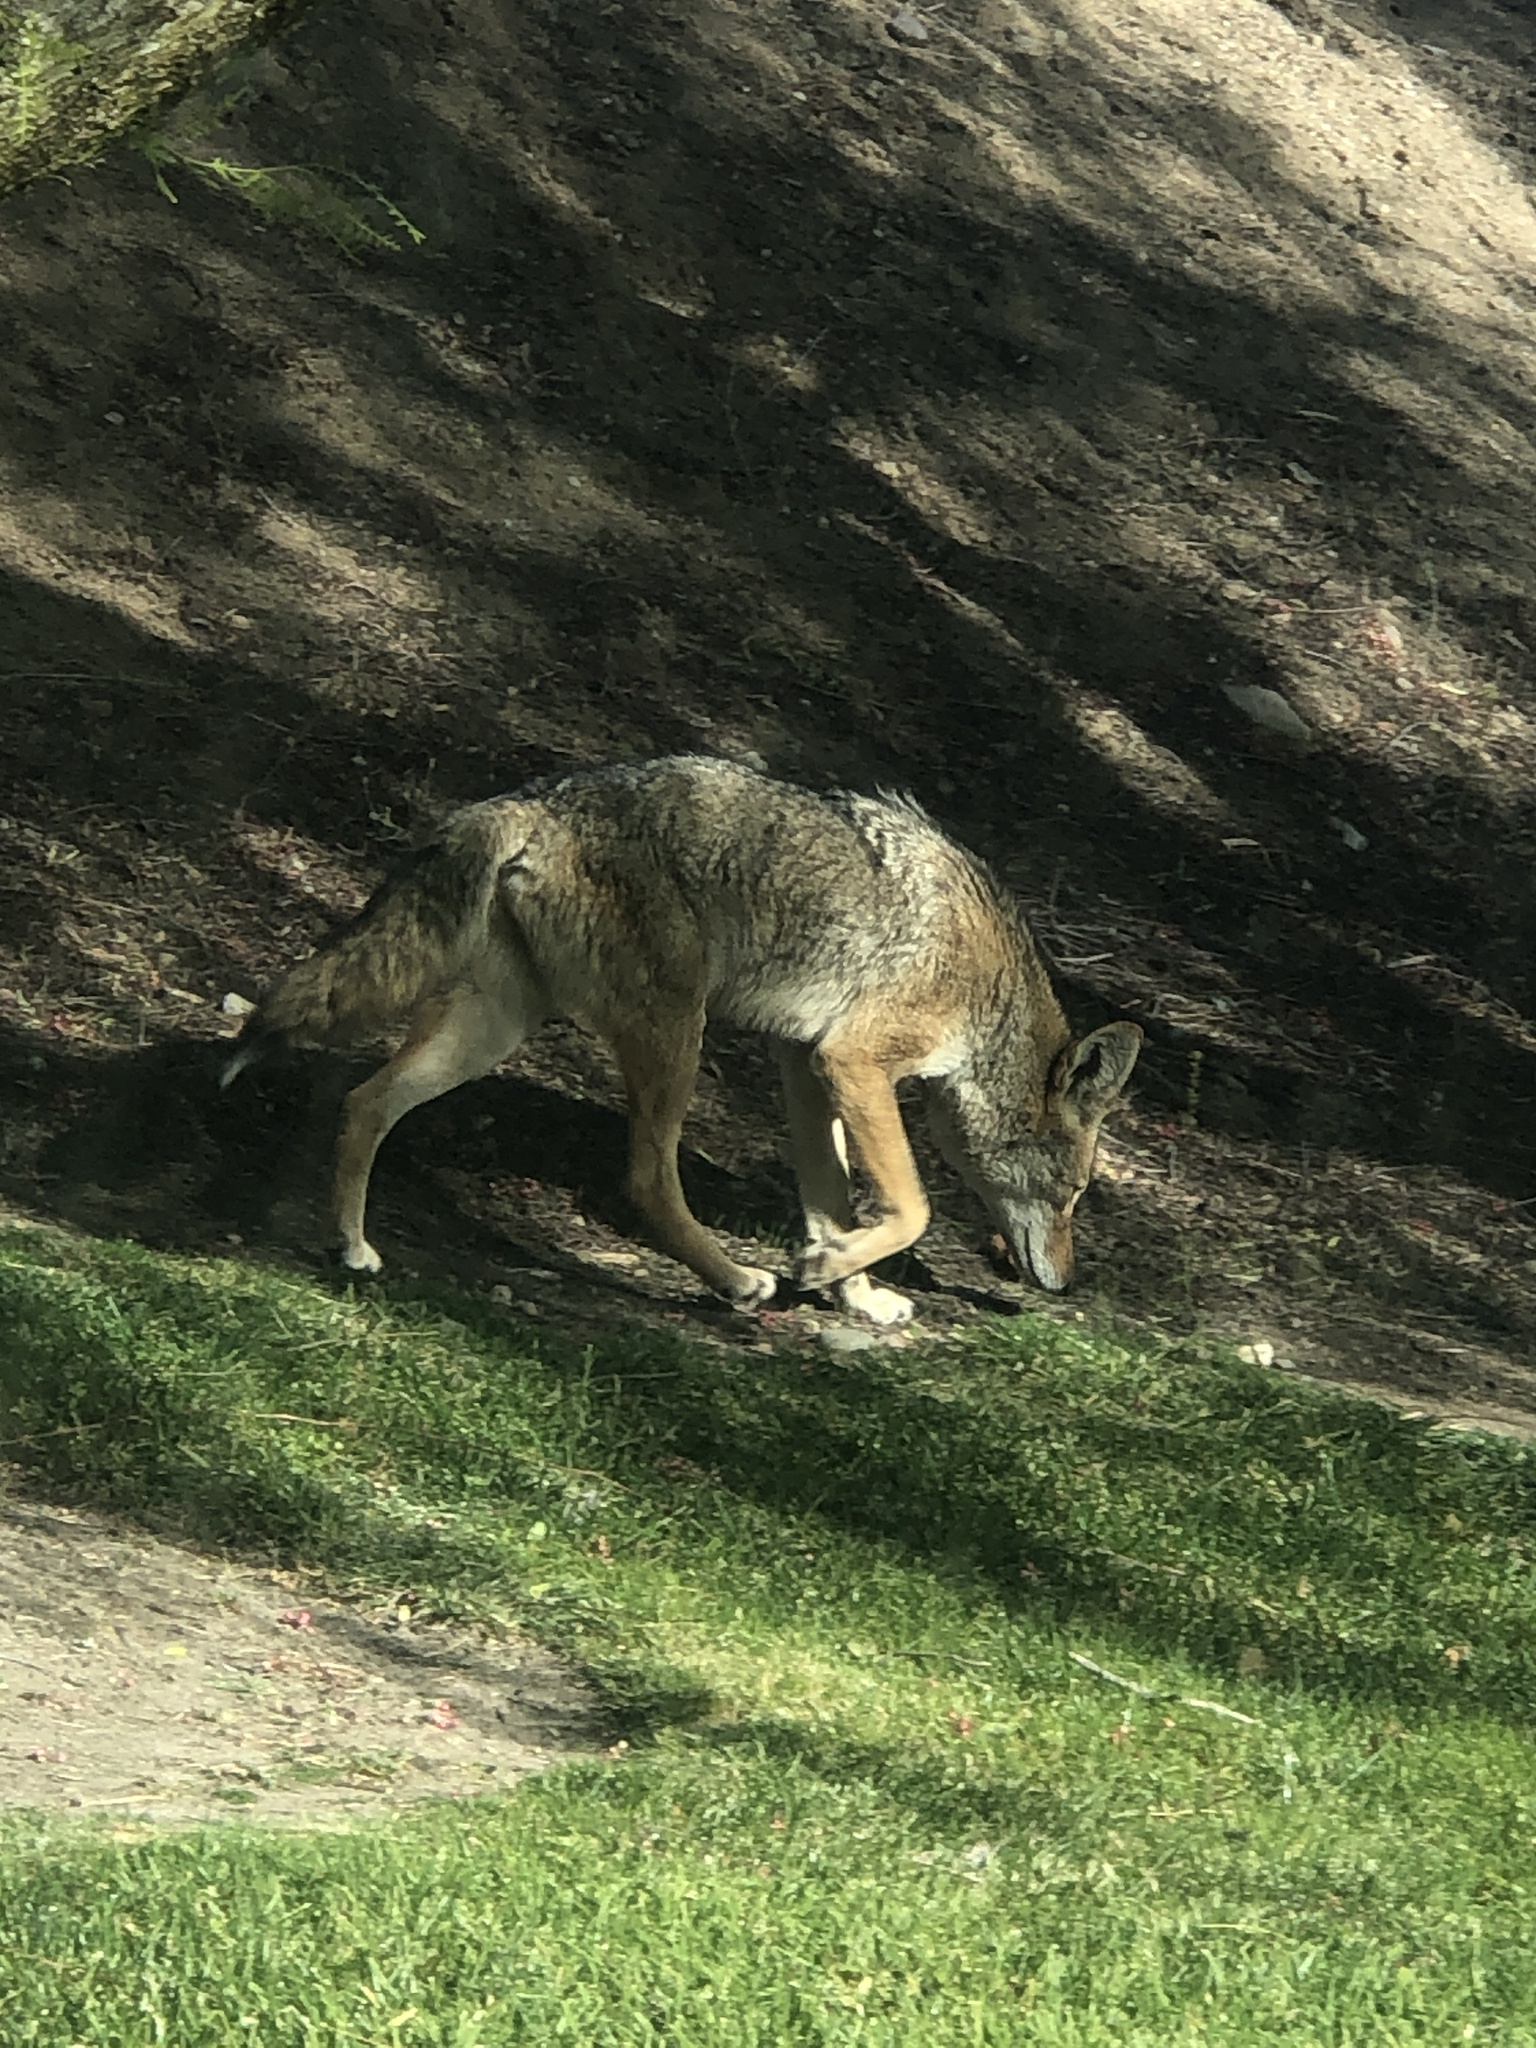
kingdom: Animalia
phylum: Chordata
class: Mammalia
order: Carnivora
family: Canidae
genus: Canis
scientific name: Canis latrans
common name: Coyote
